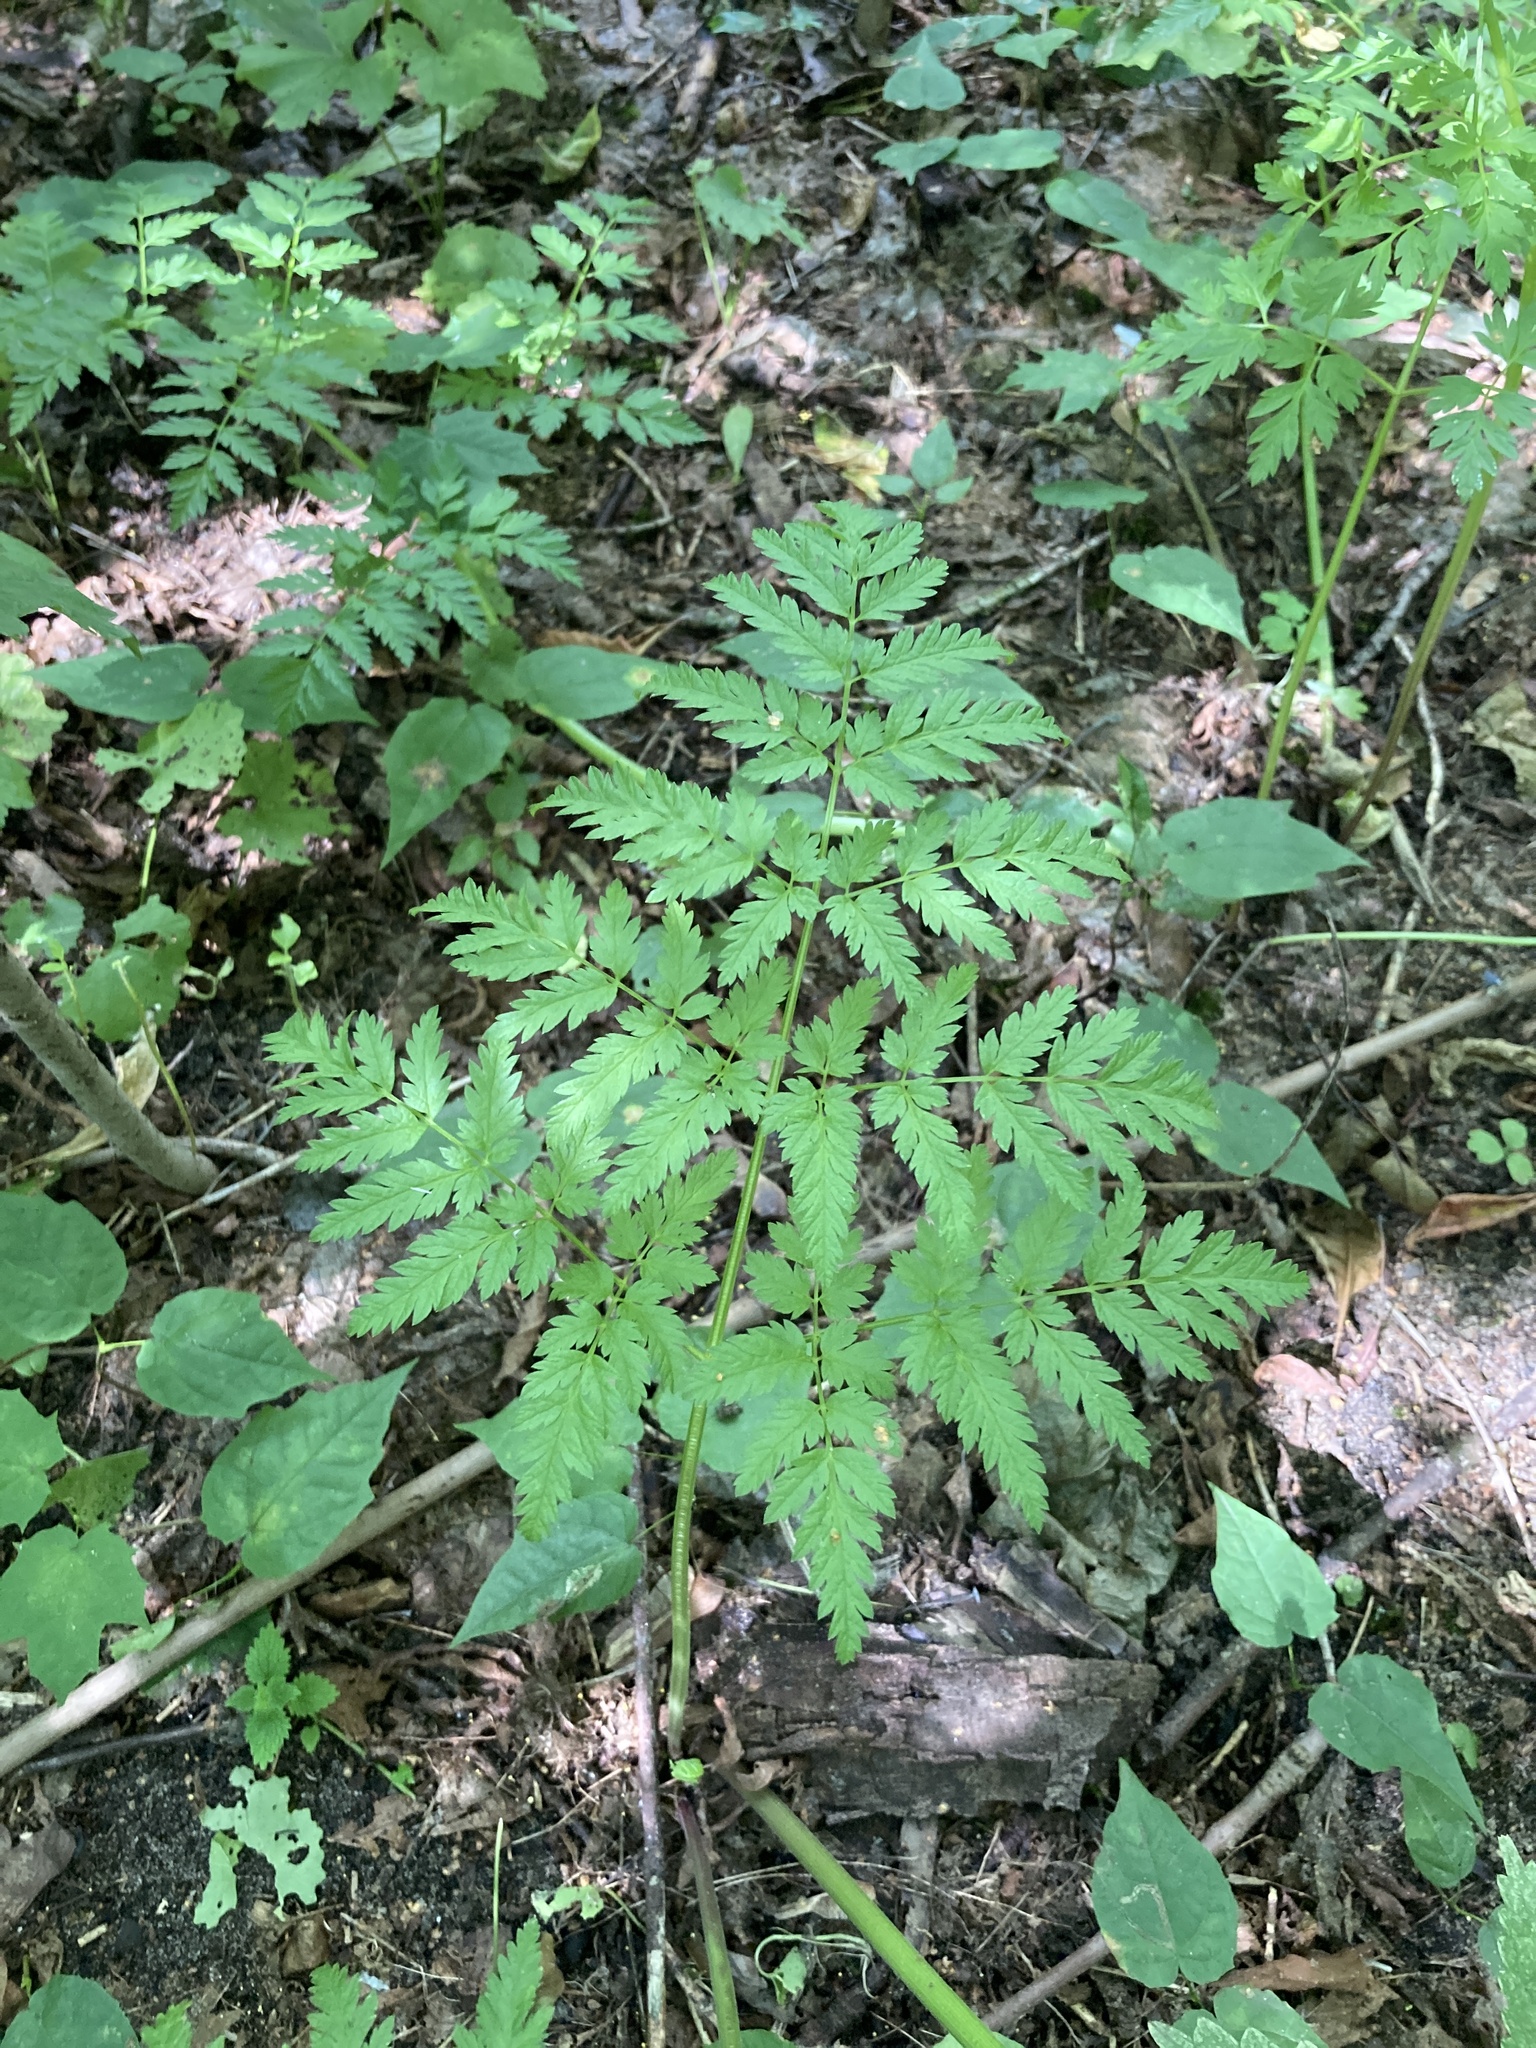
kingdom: Plantae
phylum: Tracheophyta
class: Magnoliopsida
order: Apiales
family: Apiaceae
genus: Anthriscus
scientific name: Anthriscus sylvestris
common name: Cow parsley
